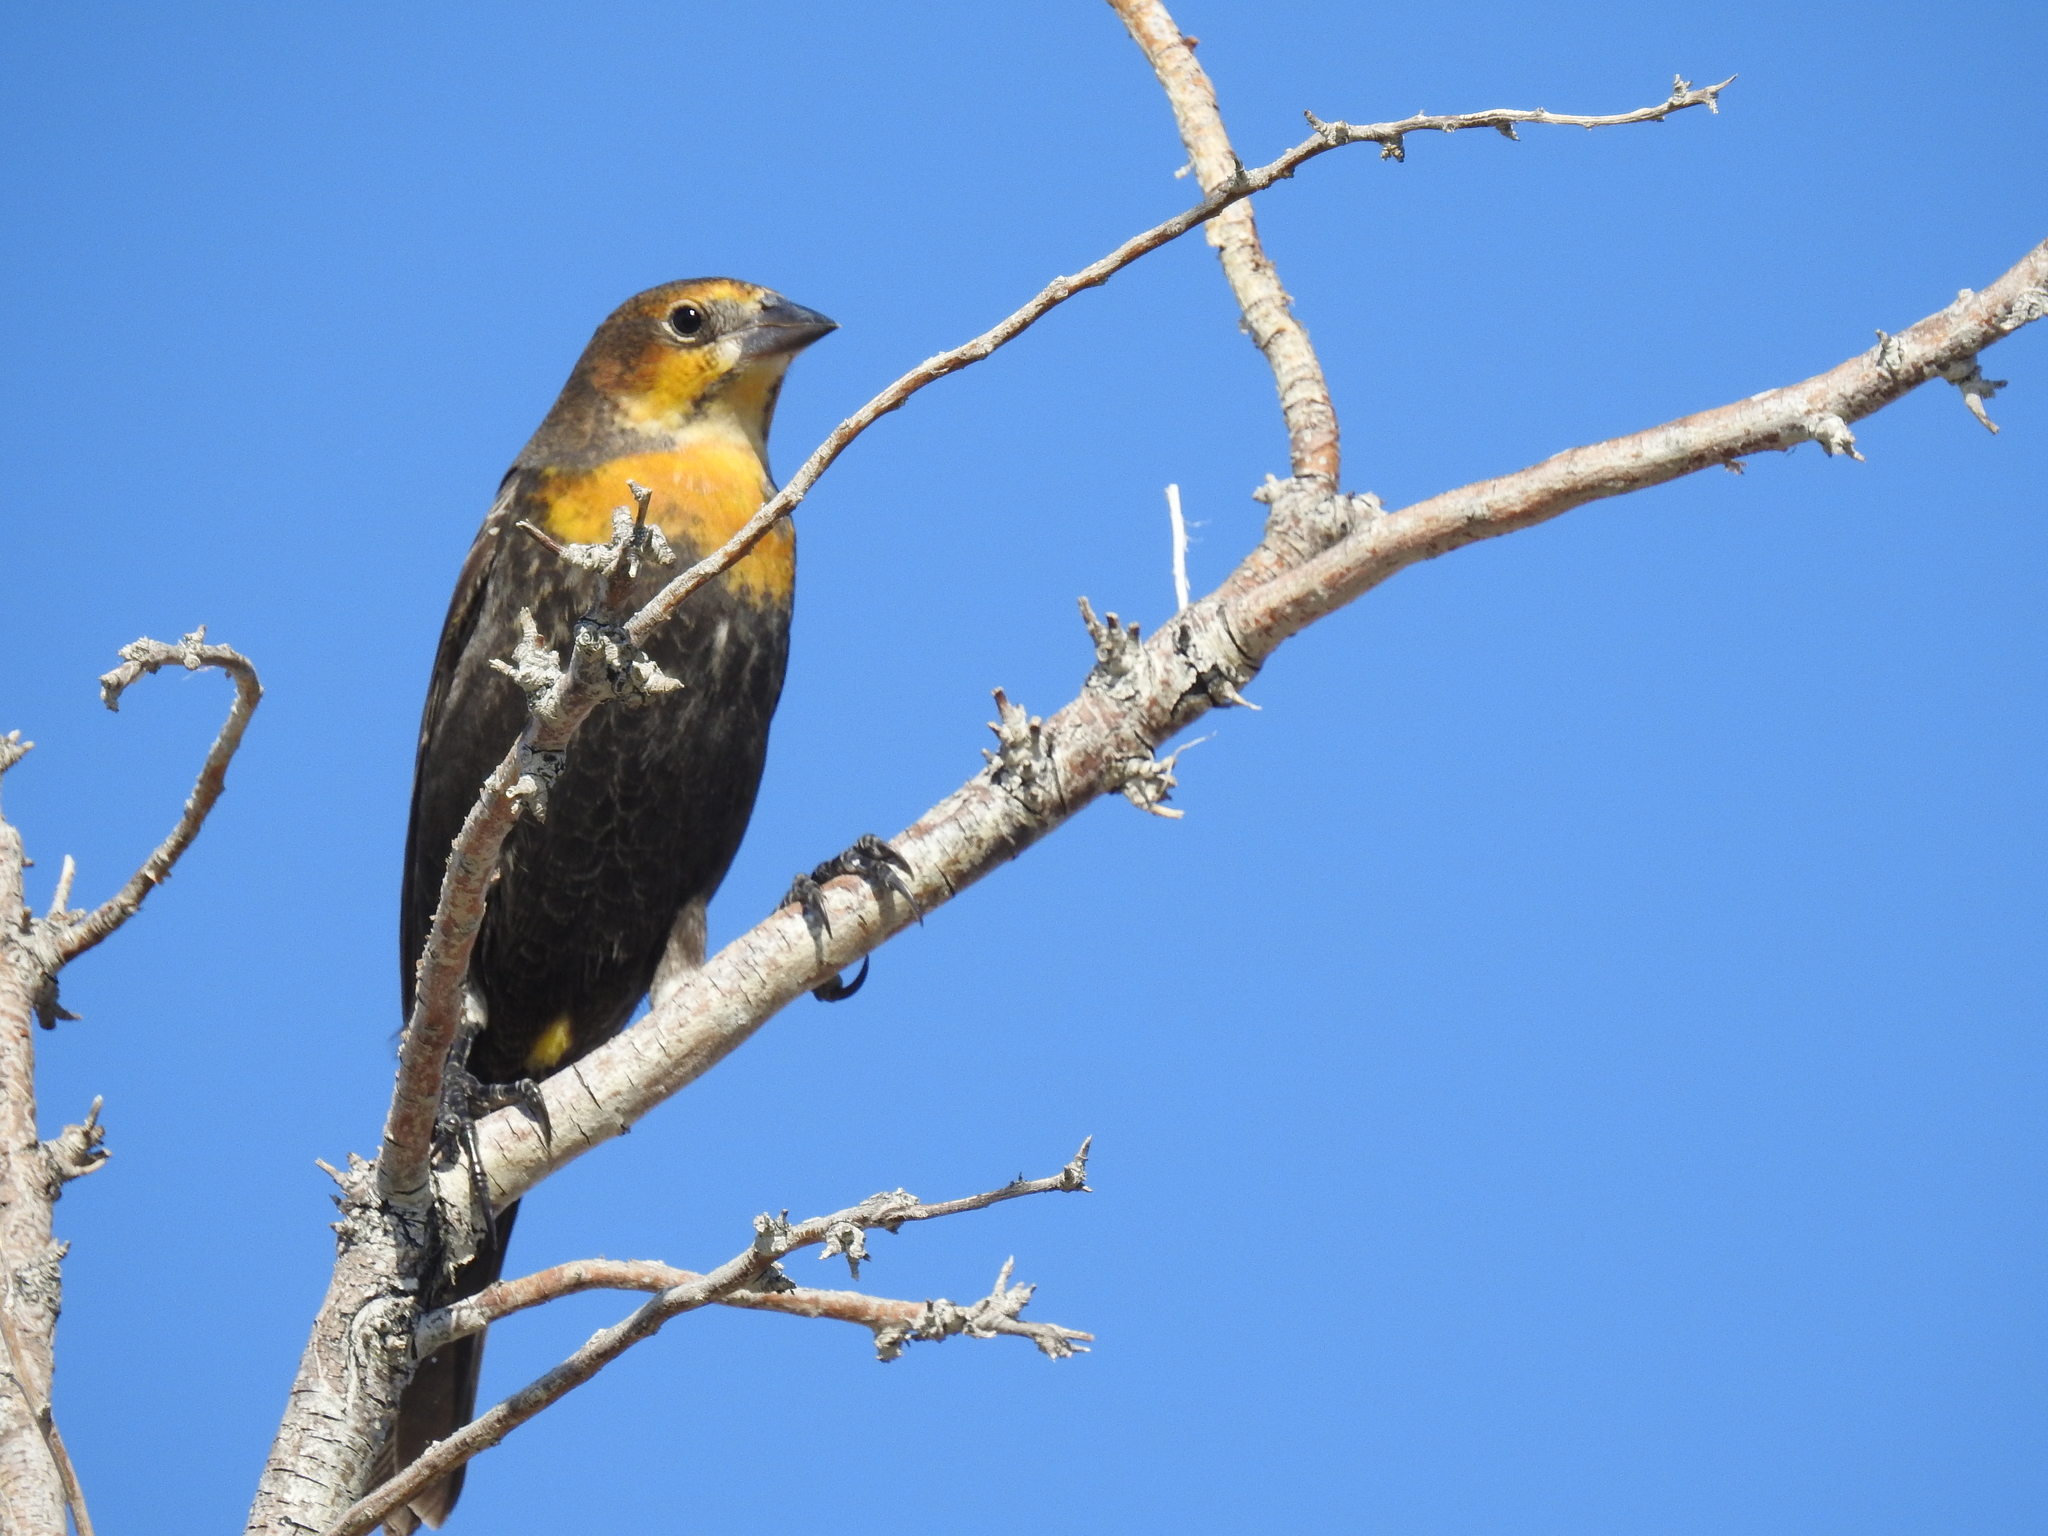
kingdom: Animalia
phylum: Chordata
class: Aves
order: Passeriformes
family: Icteridae
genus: Xanthocephalus
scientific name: Xanthocephalus xanthocephalus
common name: Yellow-headed blackbird
